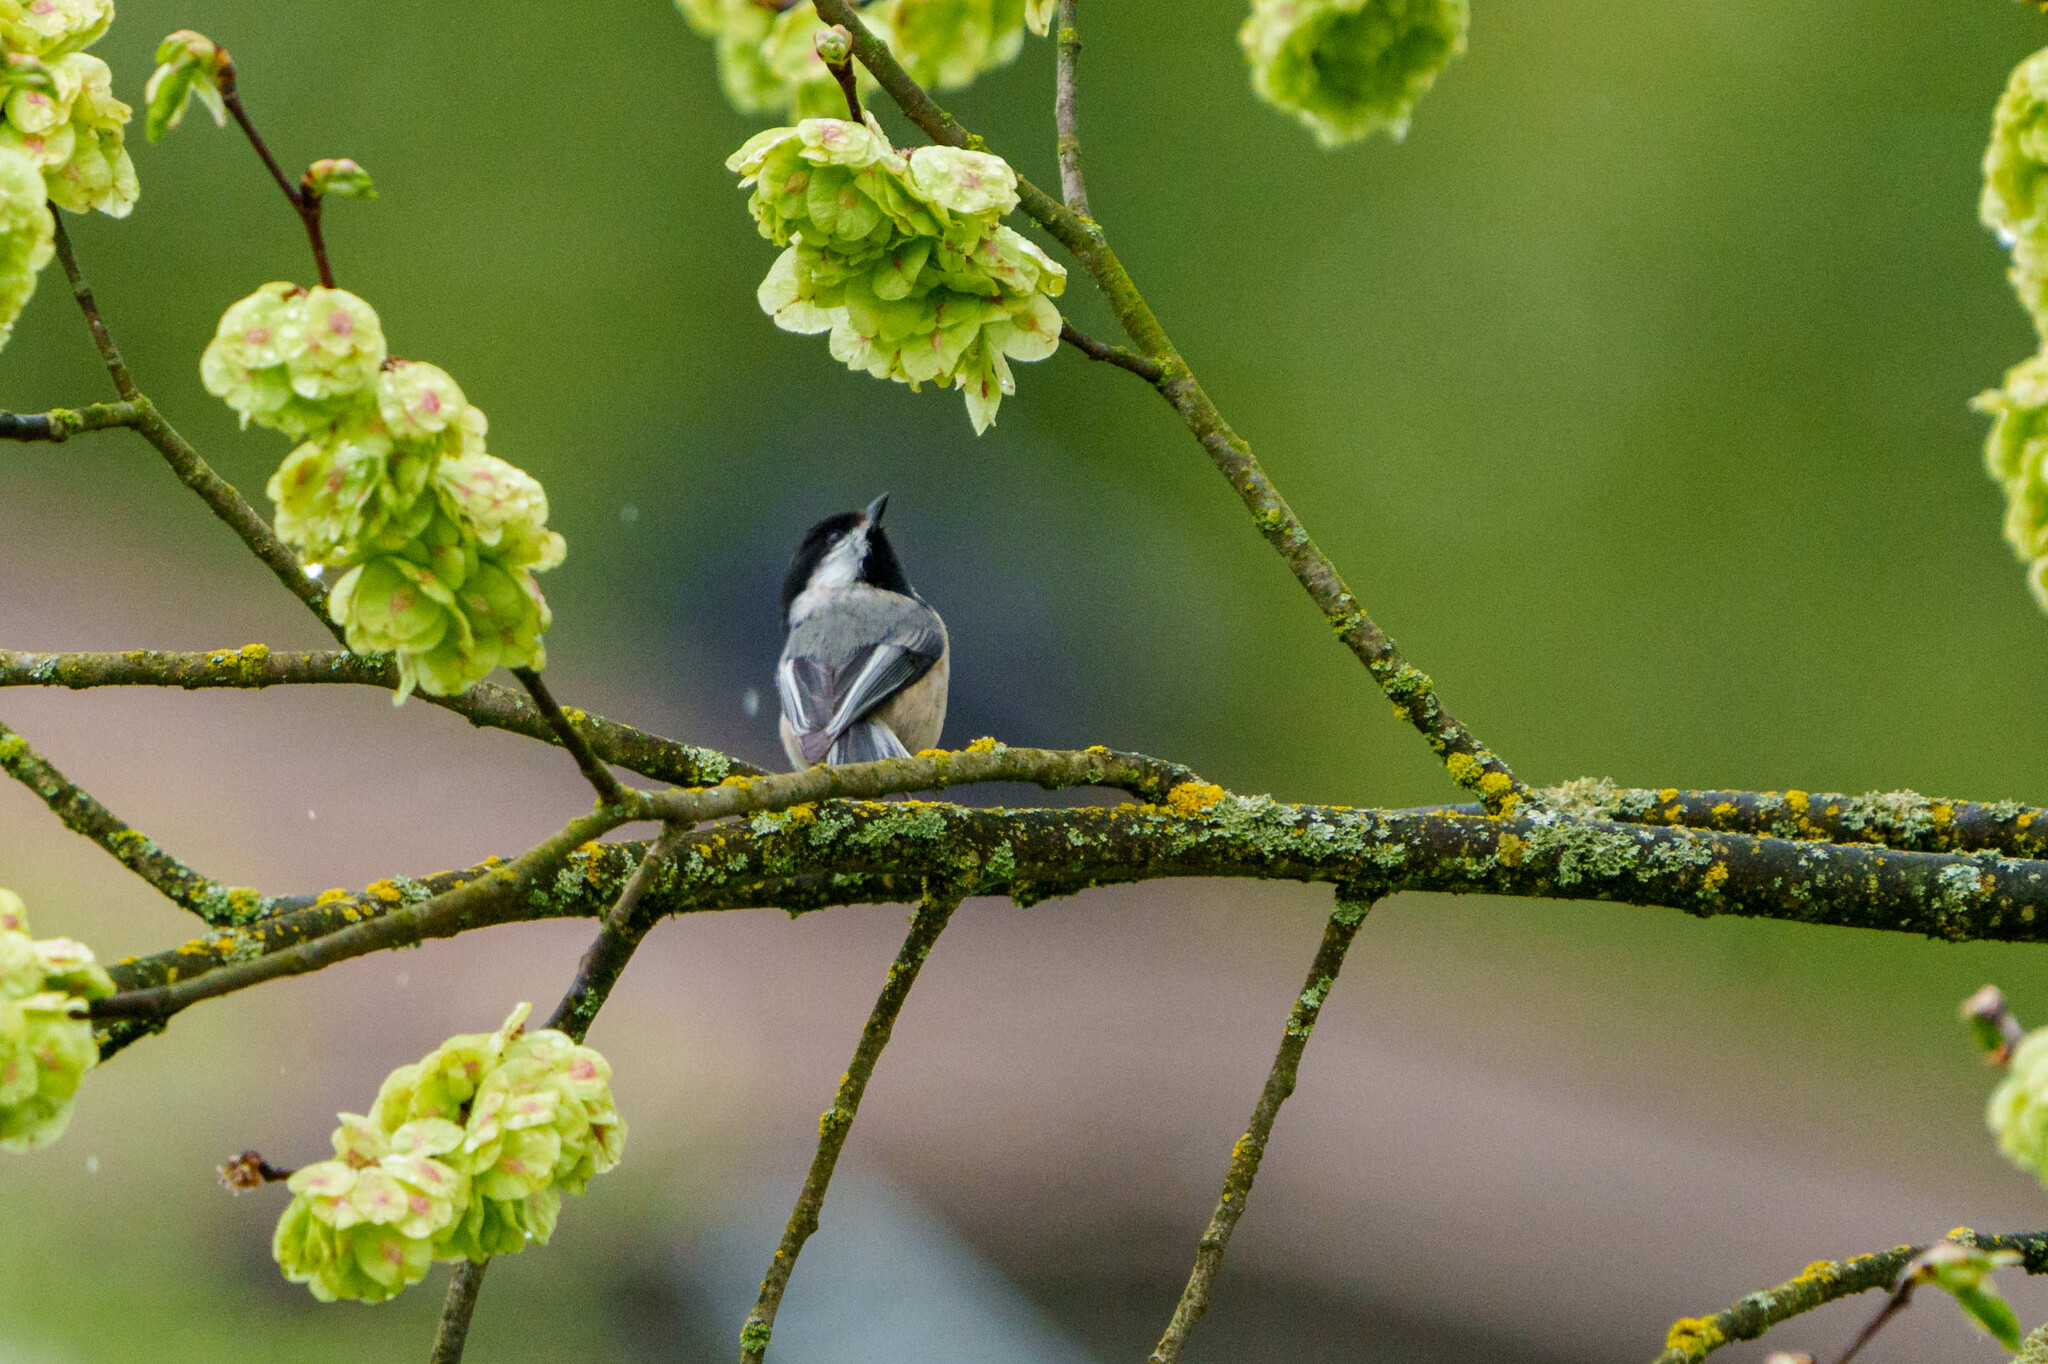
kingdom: Animalia
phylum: Chordata
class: Aves
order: Passeriformes
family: Paridae
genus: Poecile
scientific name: Poecile atricapillus
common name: Black-capped chickadee
